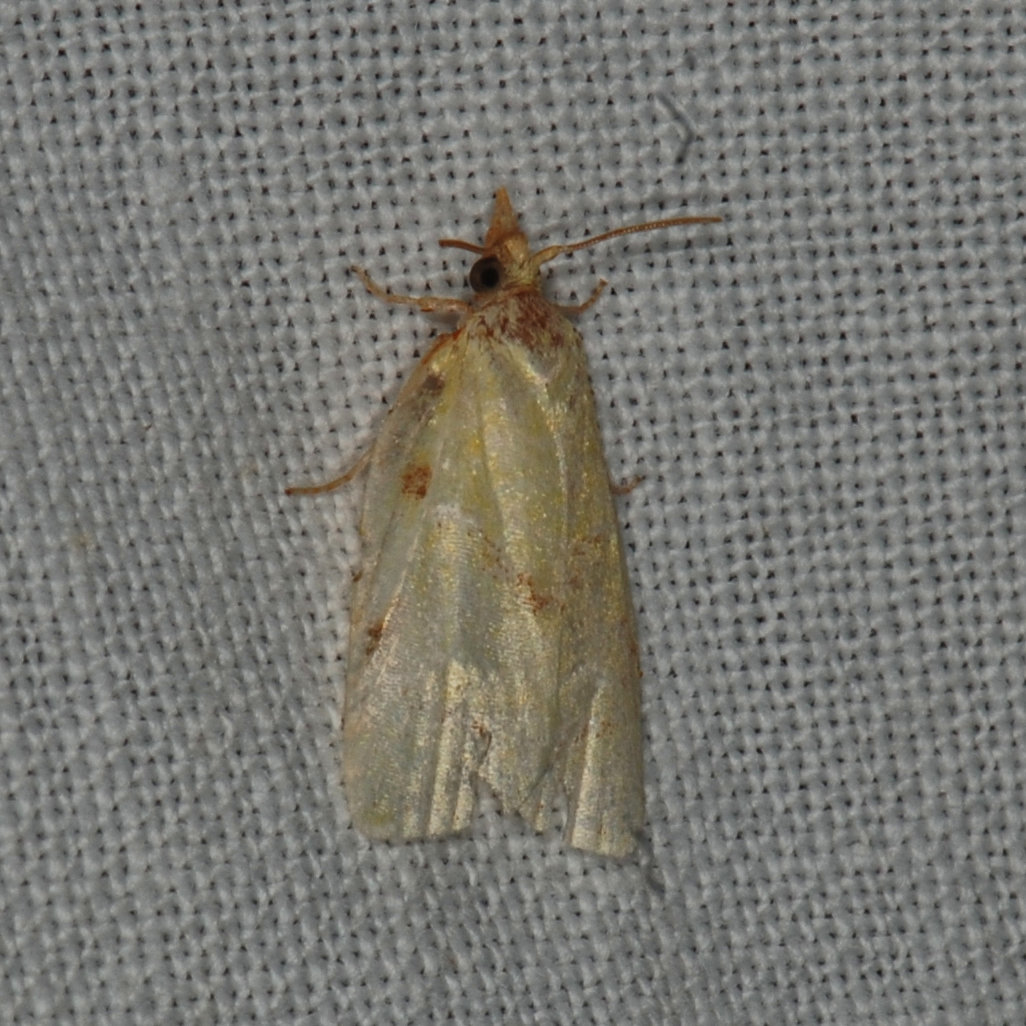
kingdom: Animalia
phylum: Arthropoda
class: Insecta
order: Lepidoptera
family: Tortricidae
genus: Cenopis
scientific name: Cenopis pettitana
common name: Maple-basswood leafroller moth
